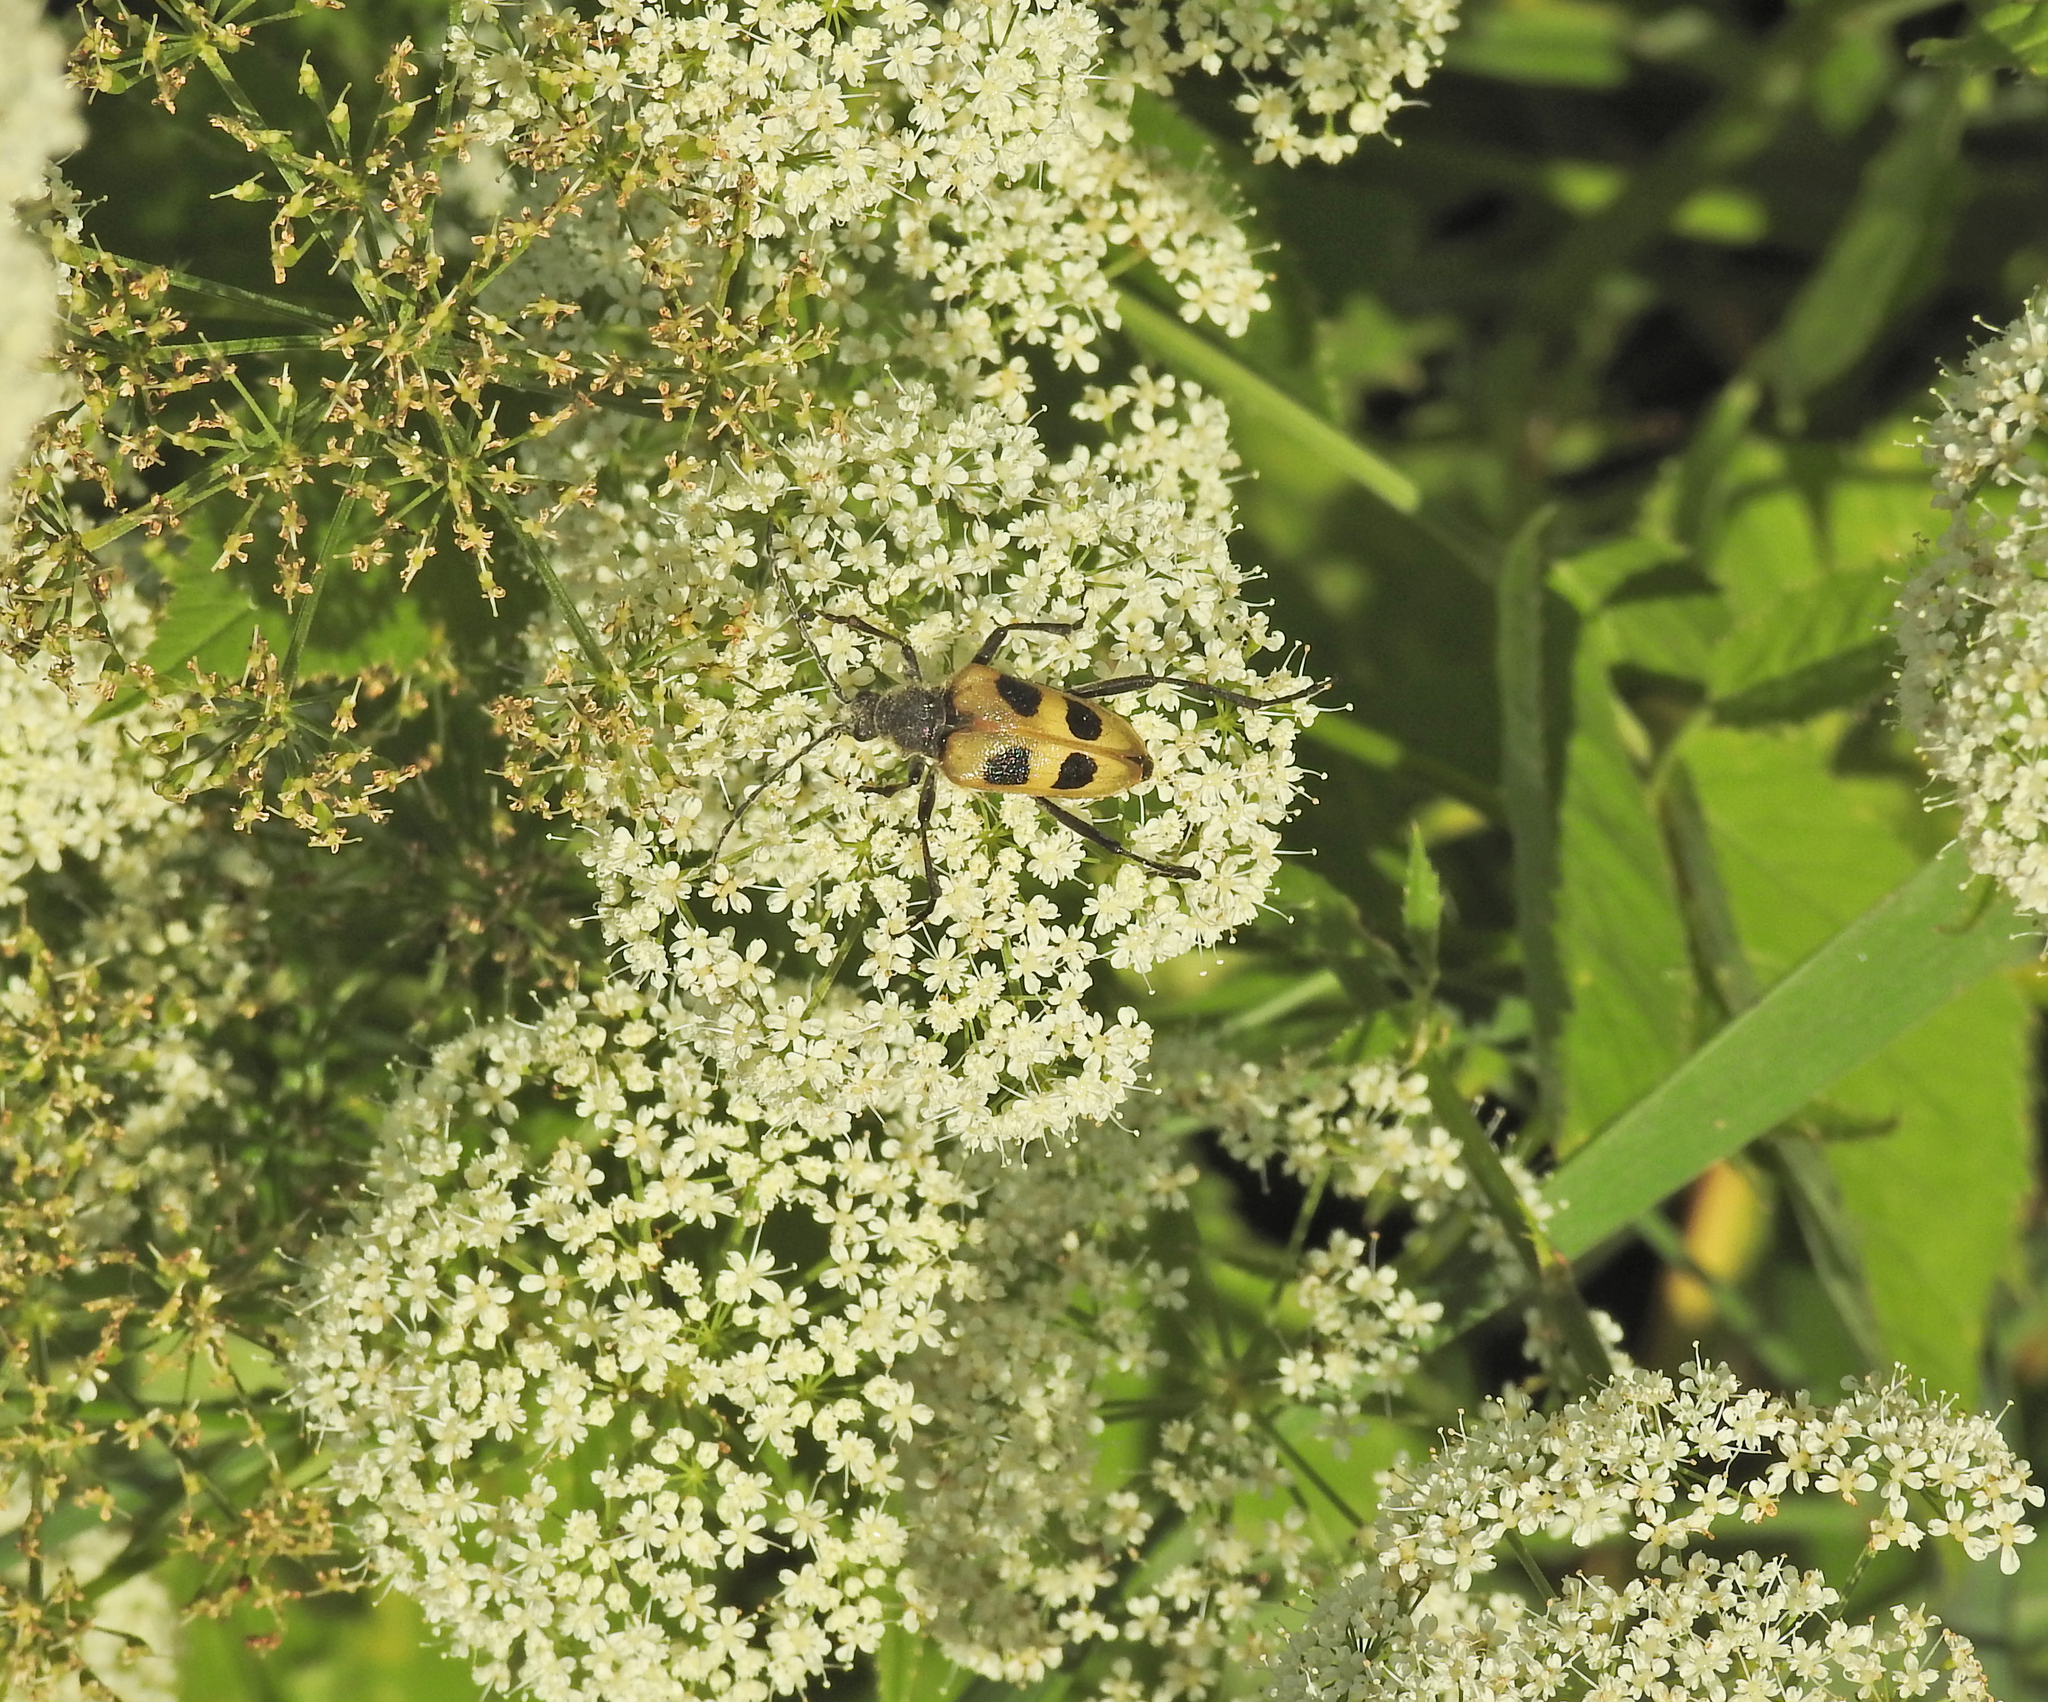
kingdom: Animalia
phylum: Arthropoda
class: Insecta
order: Coleoptera
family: Cerambycidae
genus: Pachyta
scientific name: Pachyta quadrimaculata
